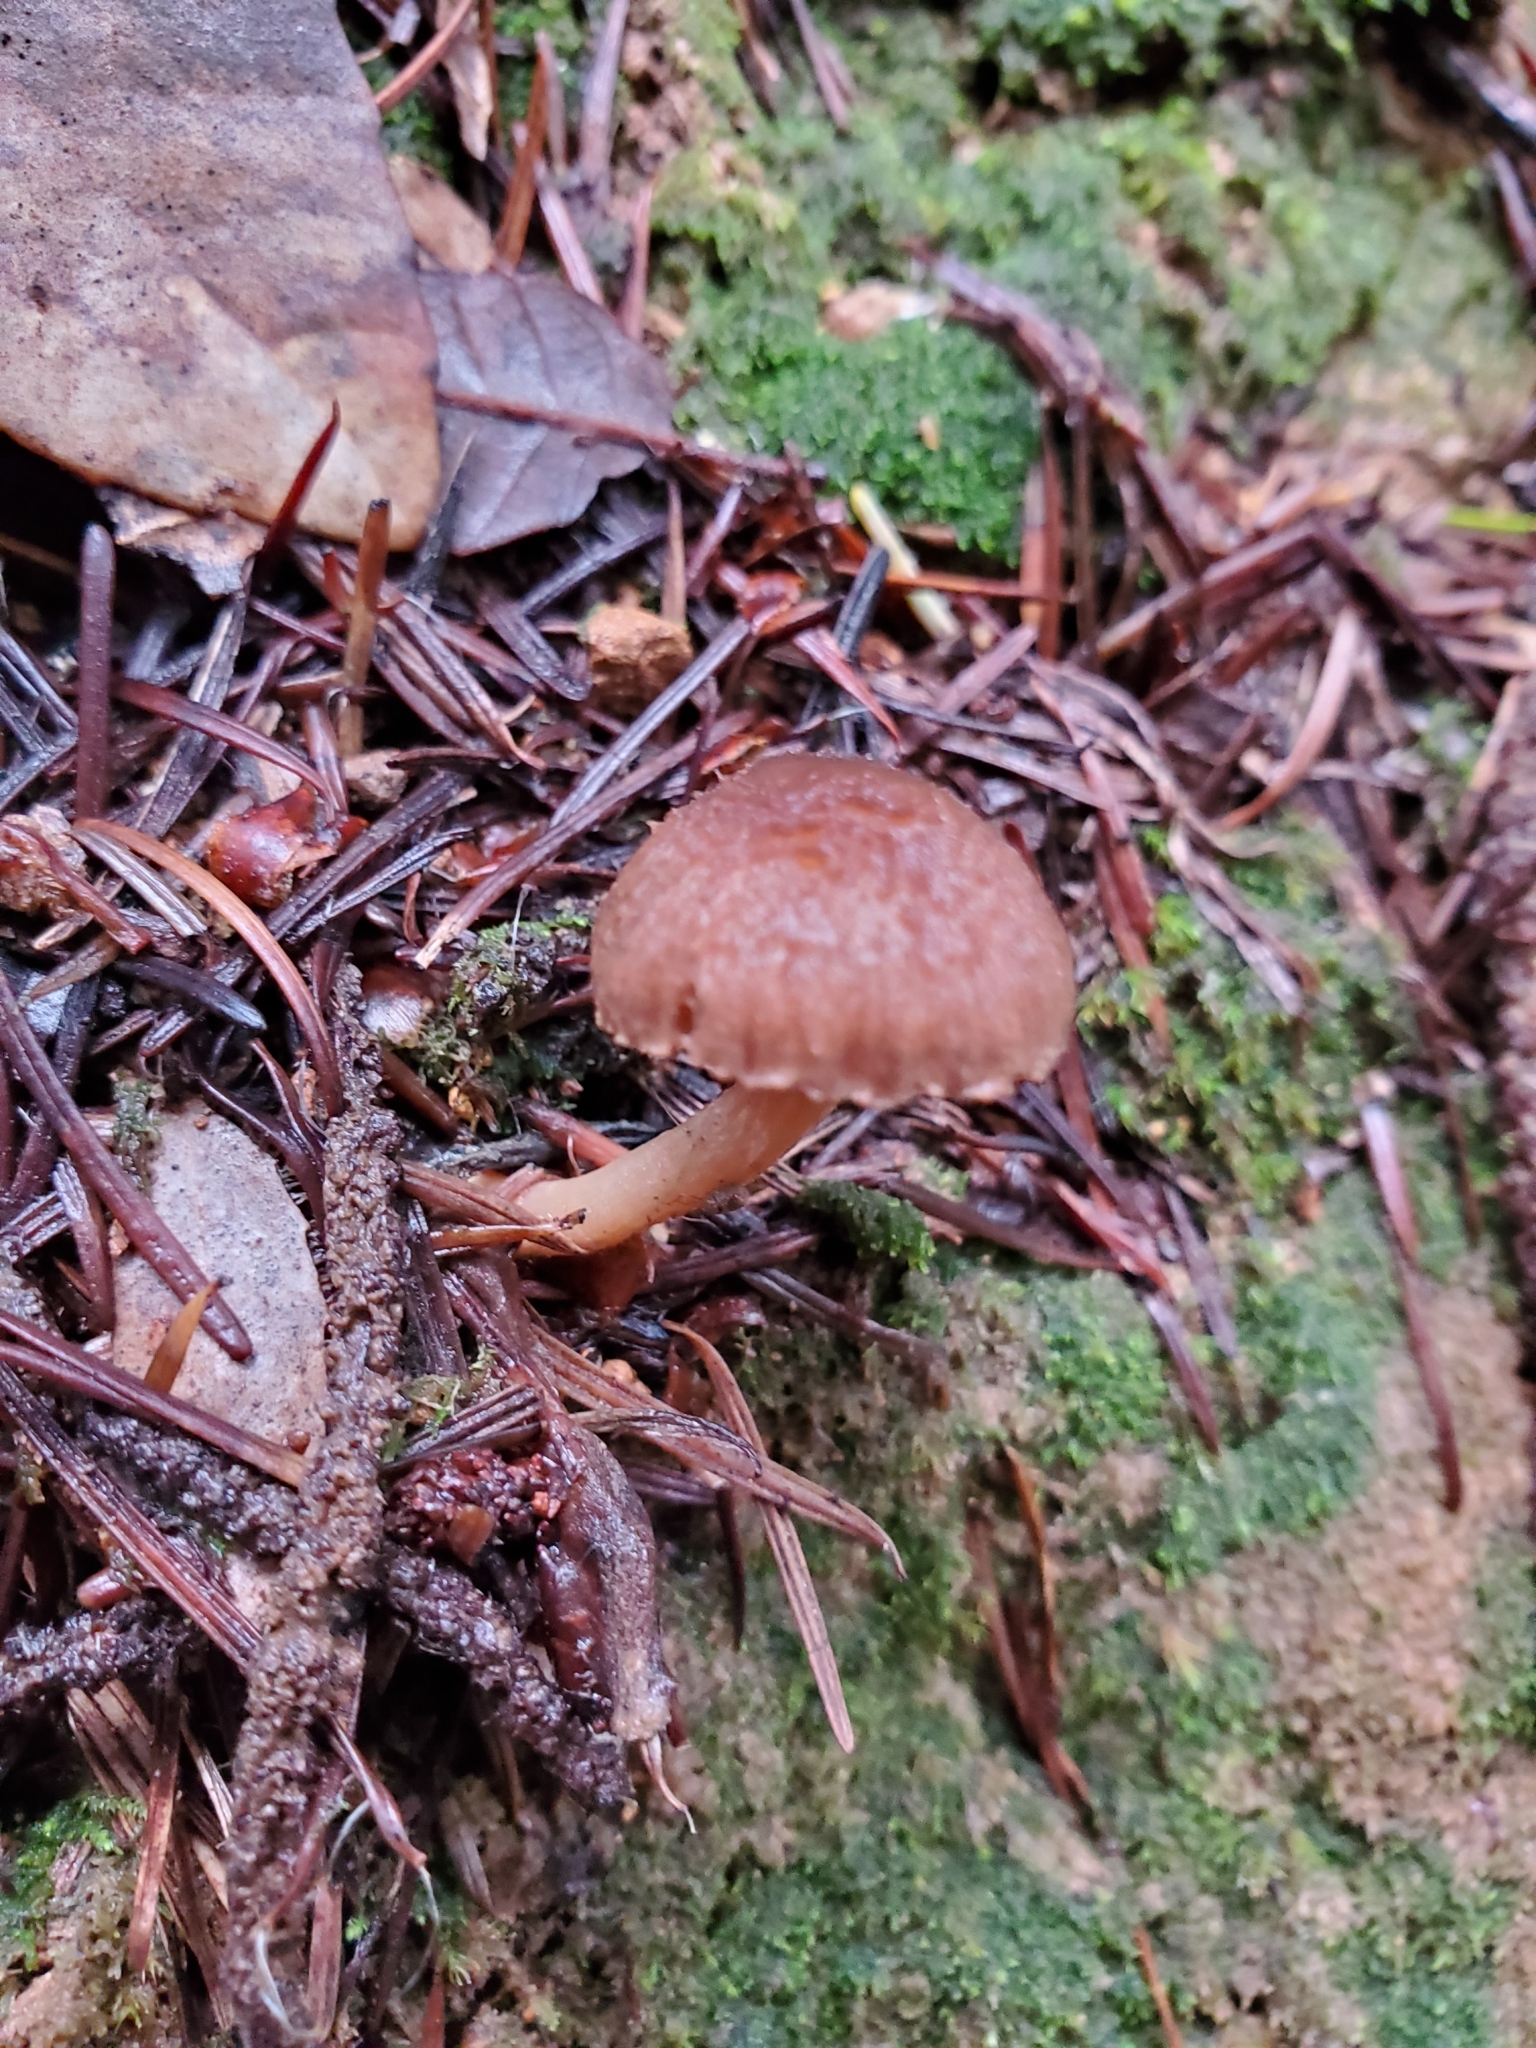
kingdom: Fungi
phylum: Basidiomycota
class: Agaricomycetes
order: Agaricales
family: Tubariaceae
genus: Tubaria
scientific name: Tubaria furfuracea
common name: Scurfy twiglet
